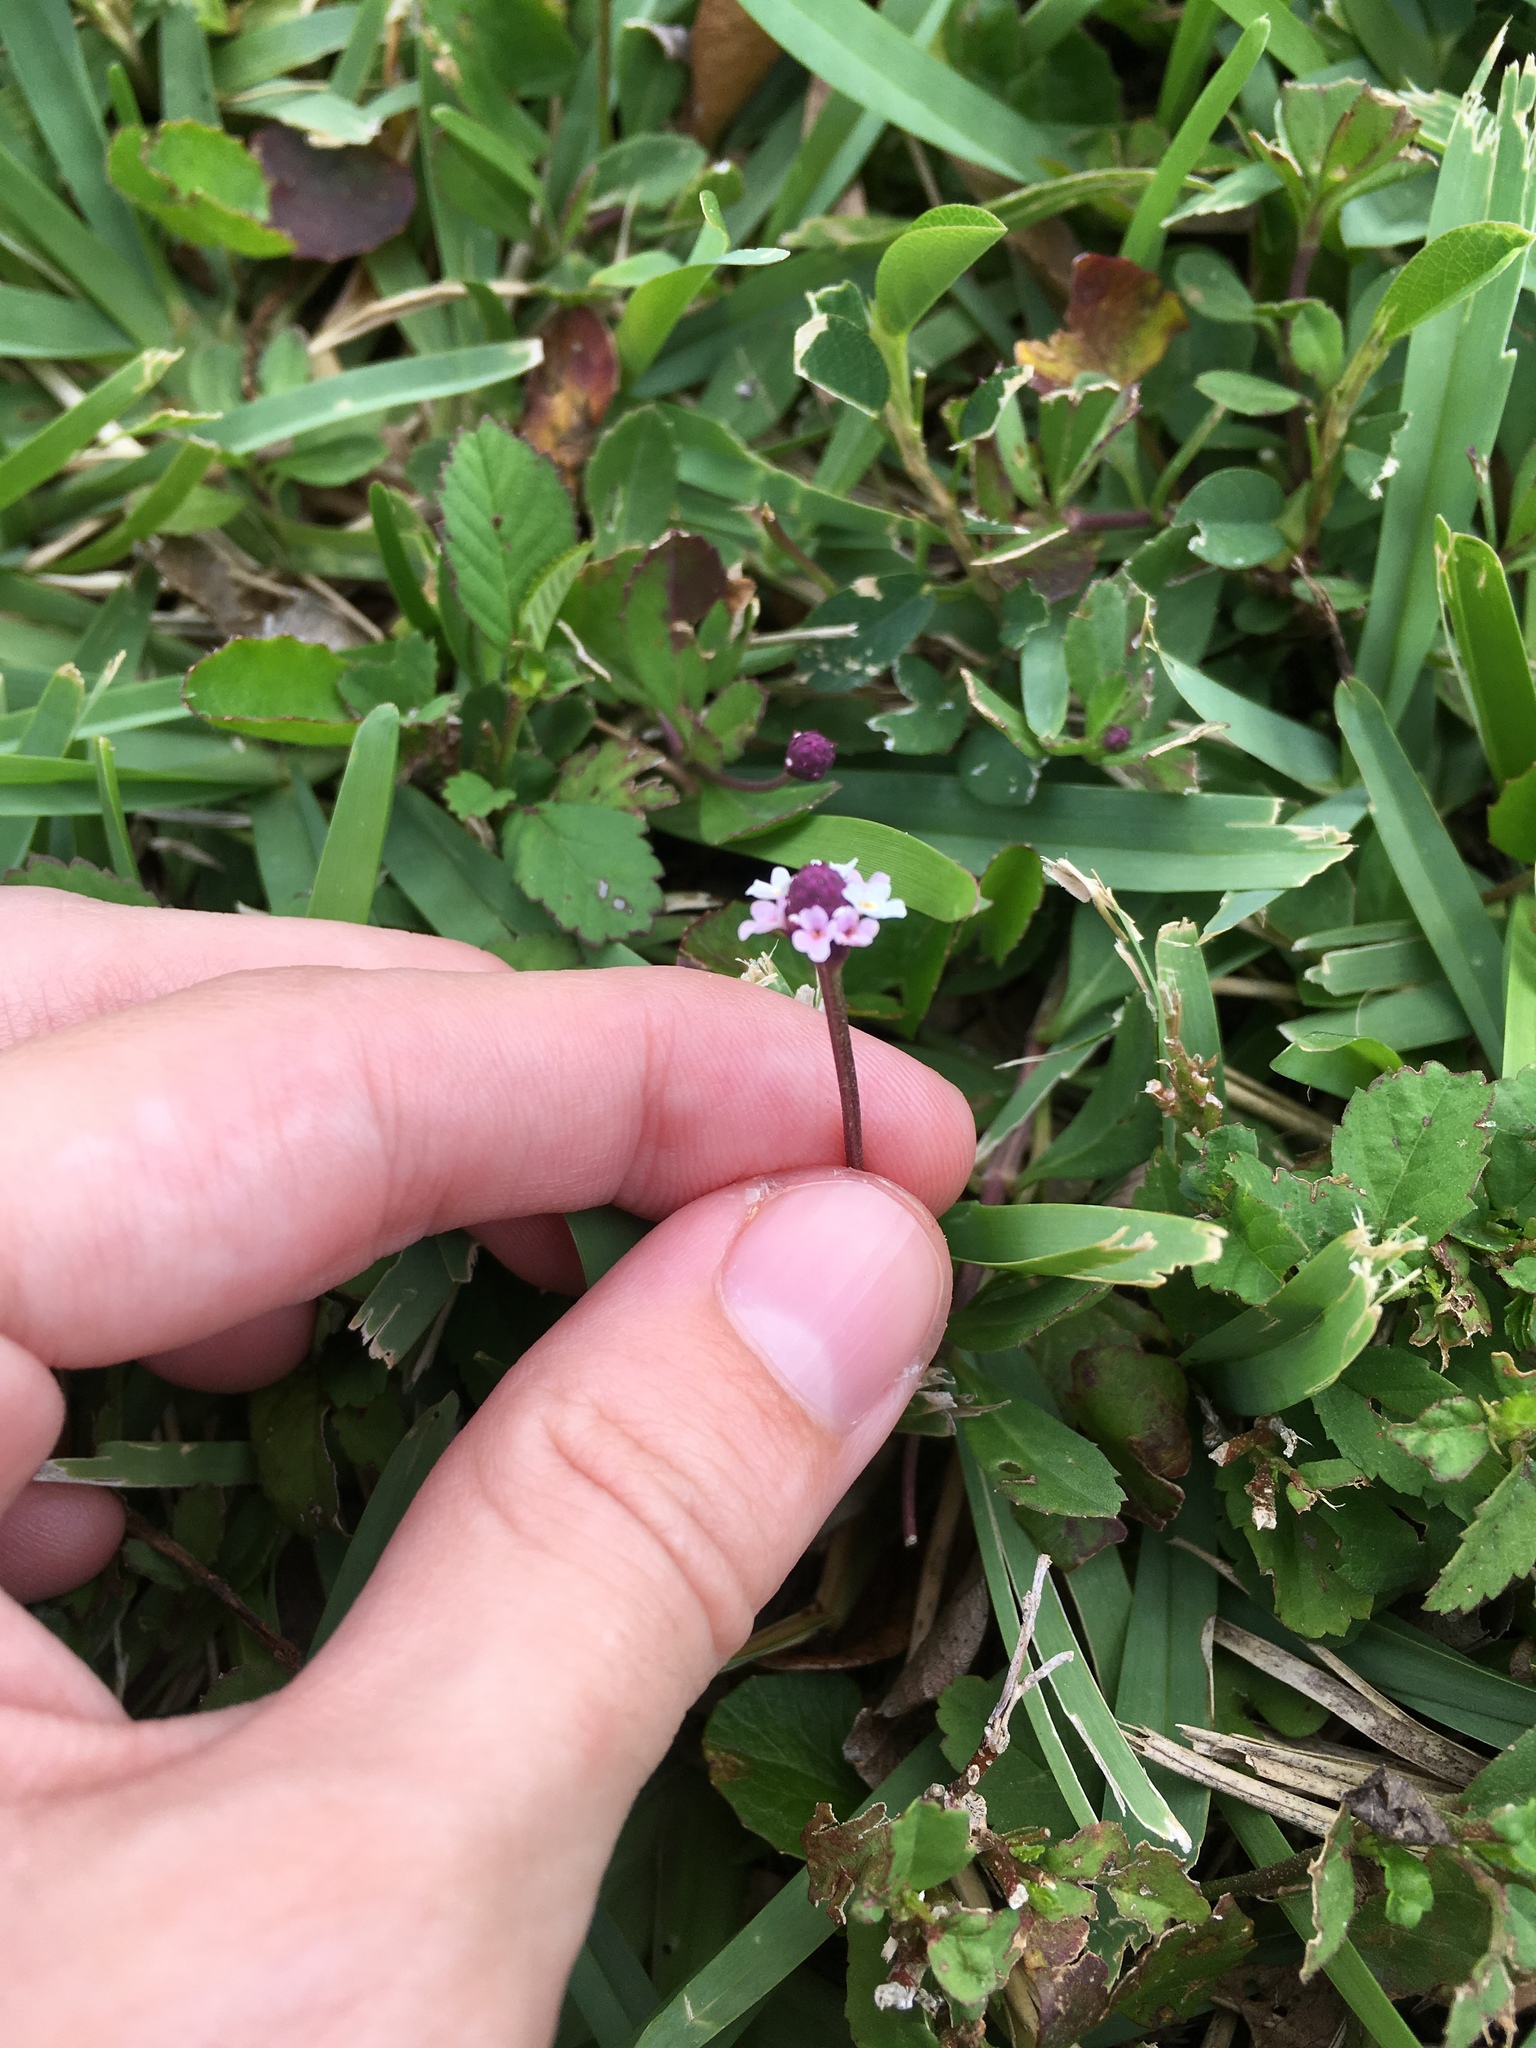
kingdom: Plantae
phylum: Tracheophyta
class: Magnoliopsida
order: Lamiales
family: Verbenaceae
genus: Phyla
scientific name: Phyla nodiflora
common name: Frogfruit
